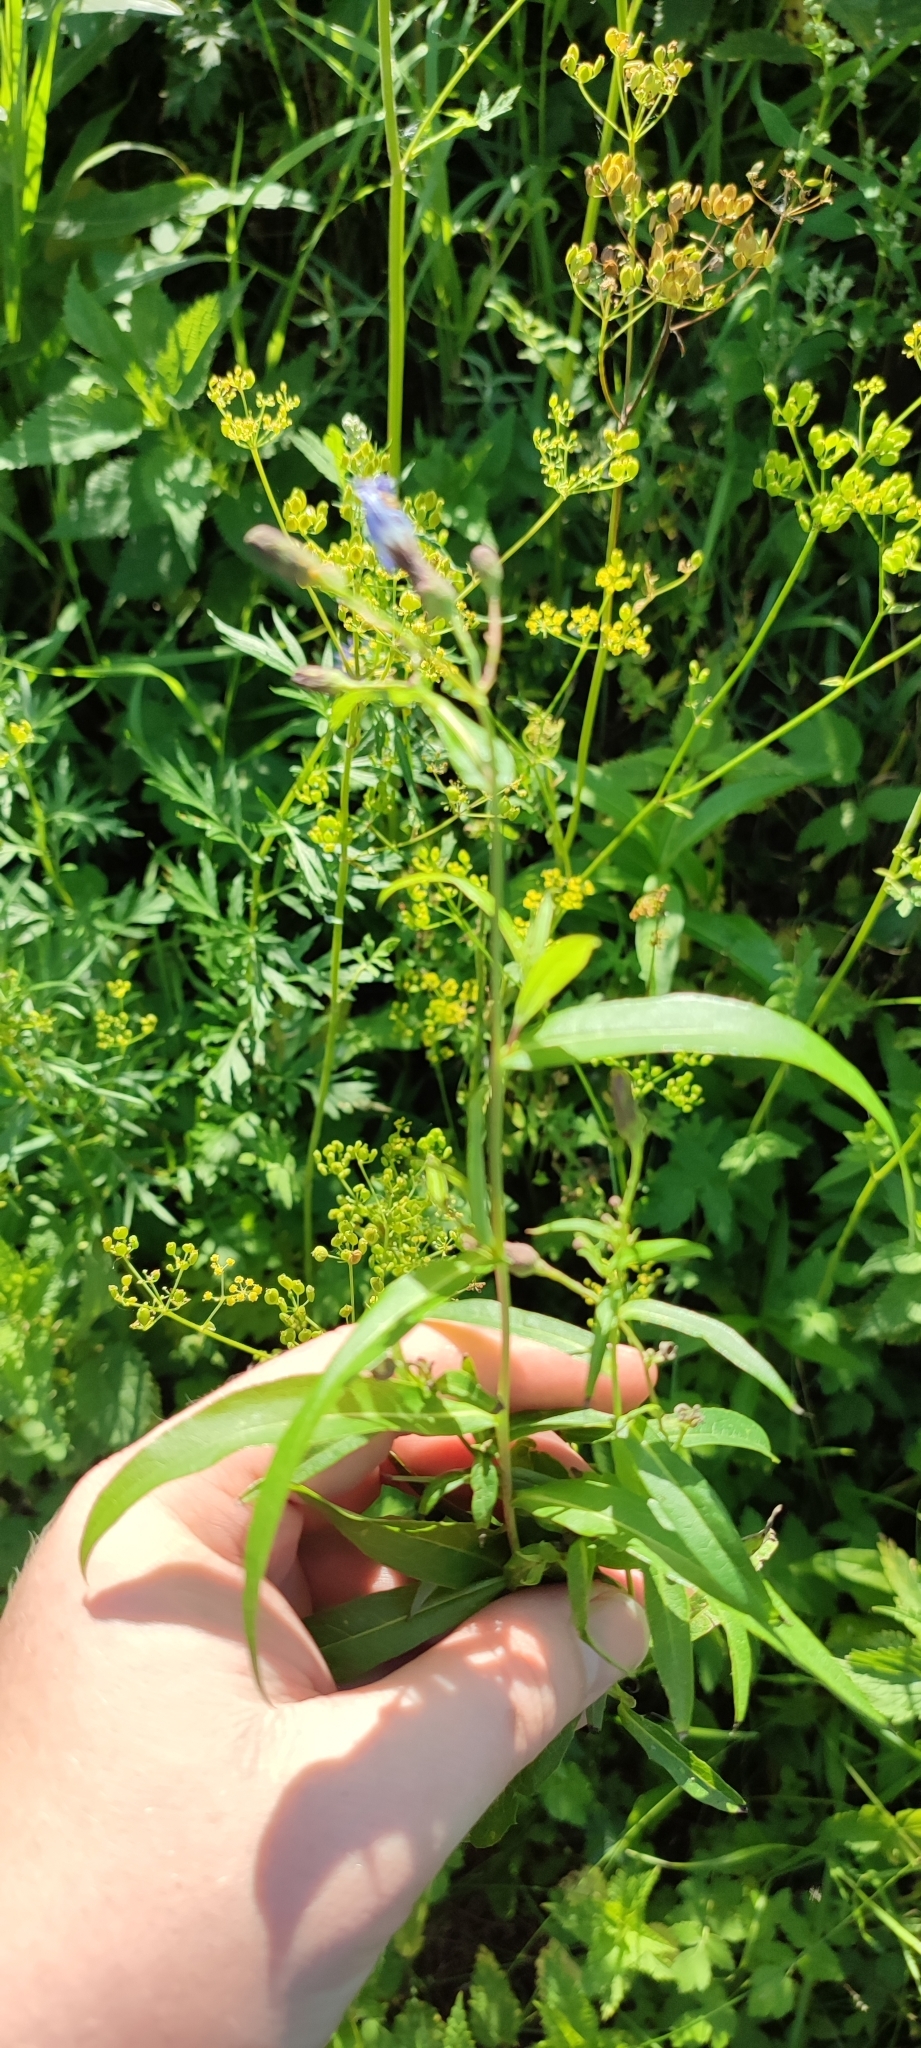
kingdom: Plantae
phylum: Tracheophyta
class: Magnoliopsida
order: Asterales
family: Asteraceae
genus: Lactuca
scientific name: Lactuca sibirica
